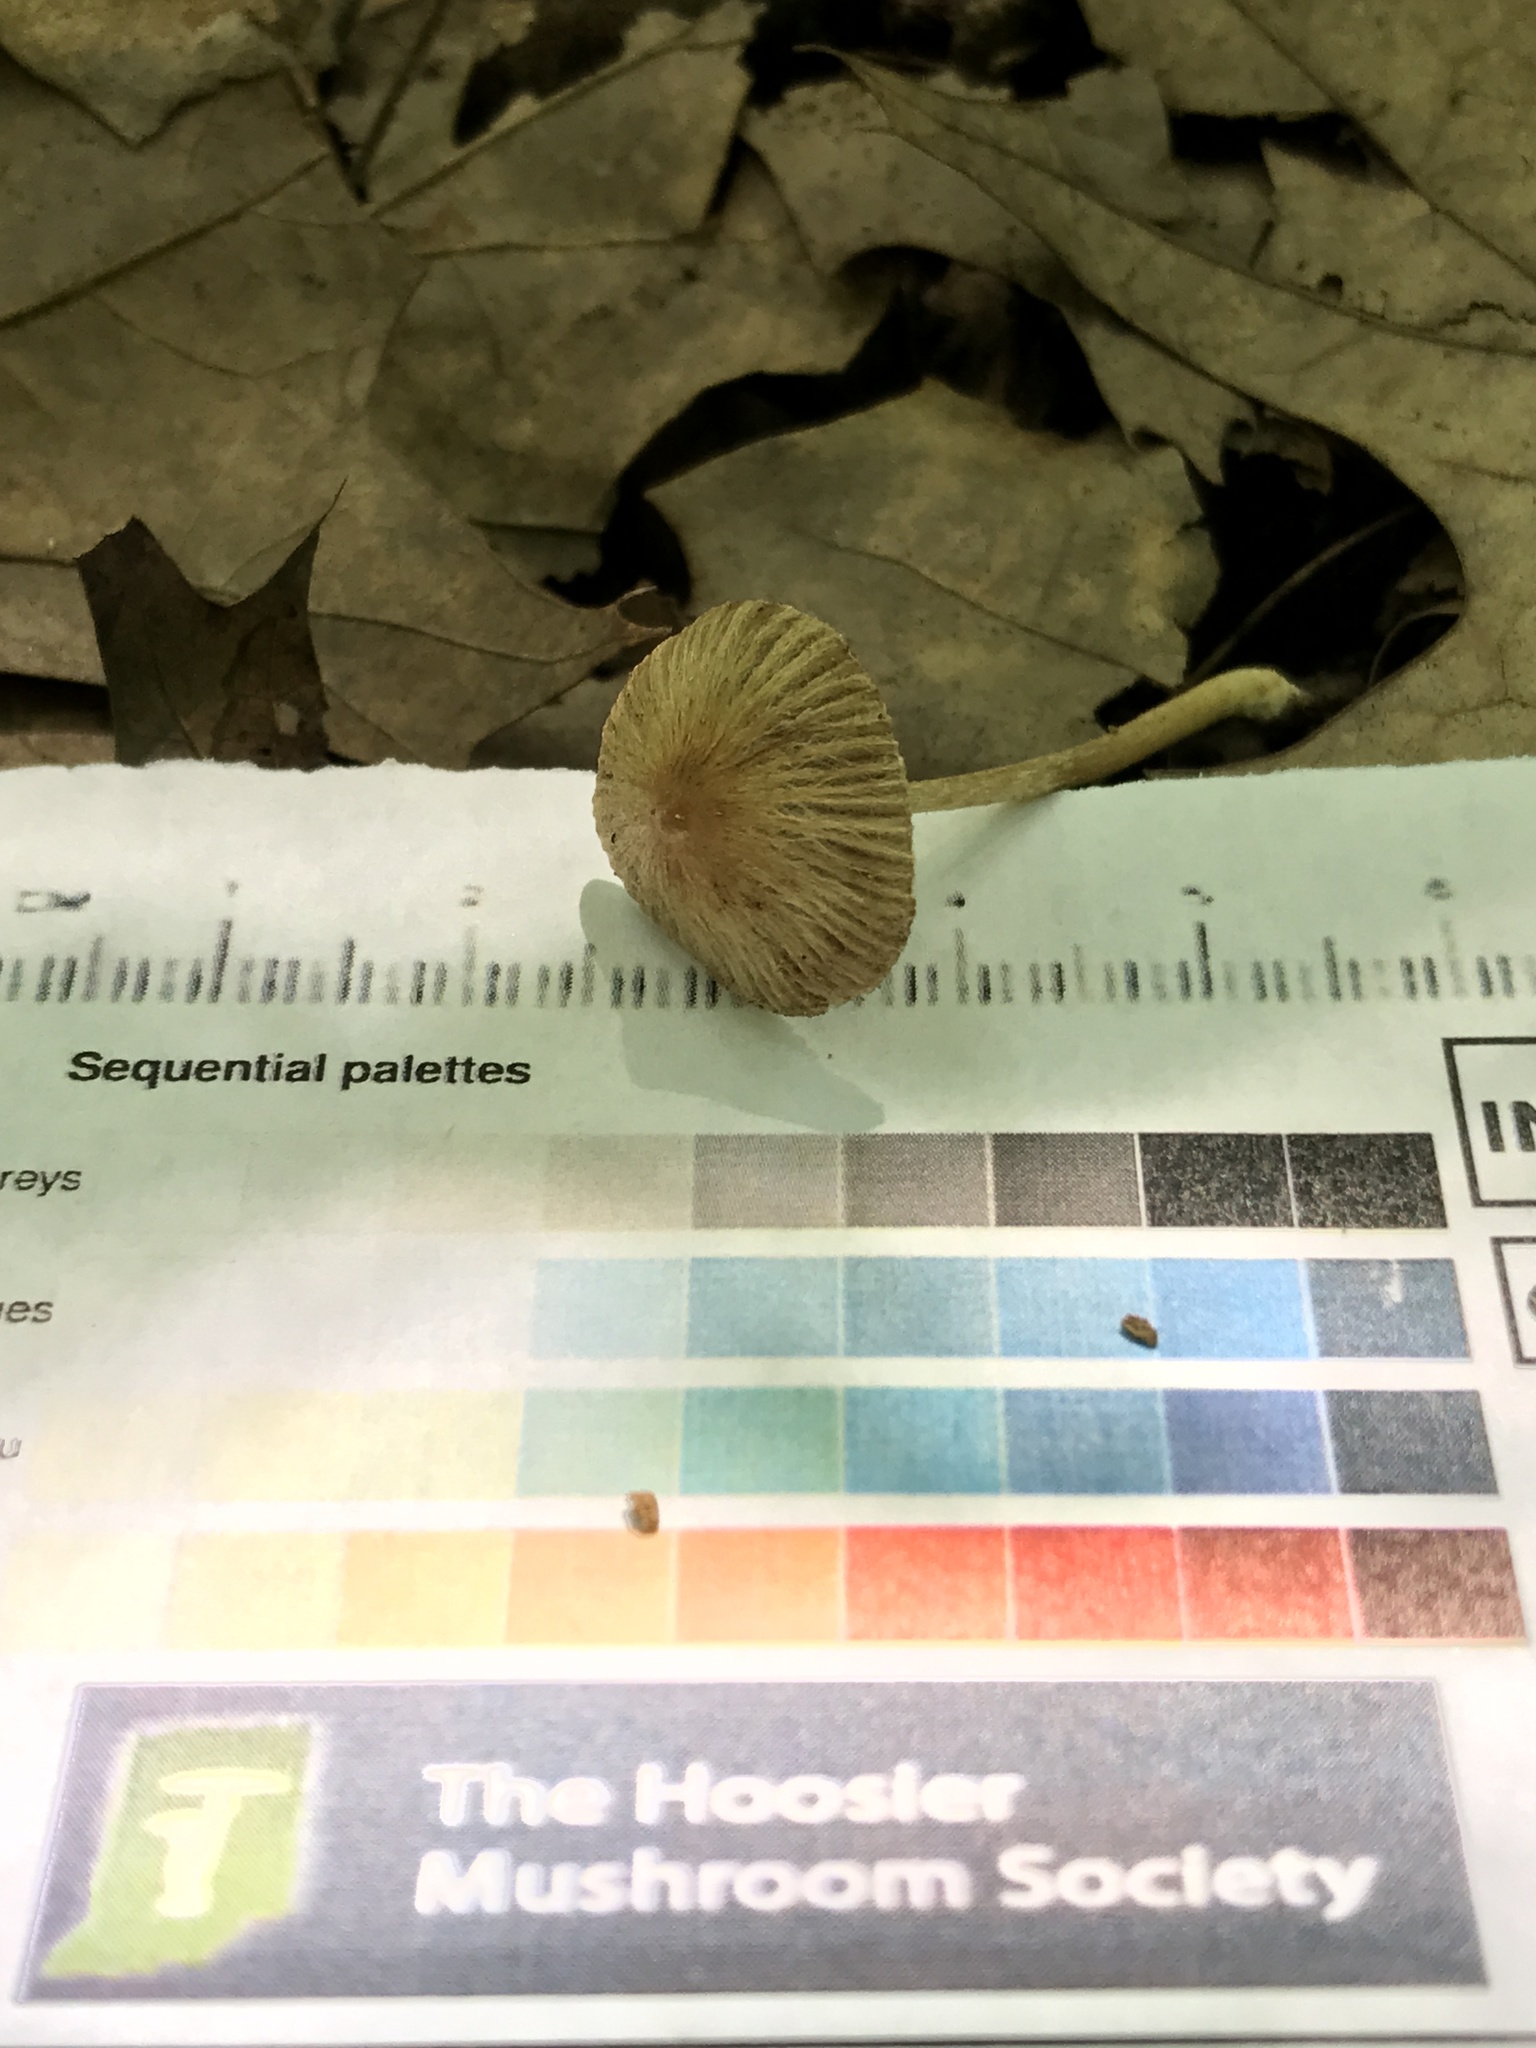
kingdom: Fungi
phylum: Basidiomycota
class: Agaricomycetes
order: Agaricales
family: Inocybaceae
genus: Inocybe
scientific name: Inocybe margaritispora
